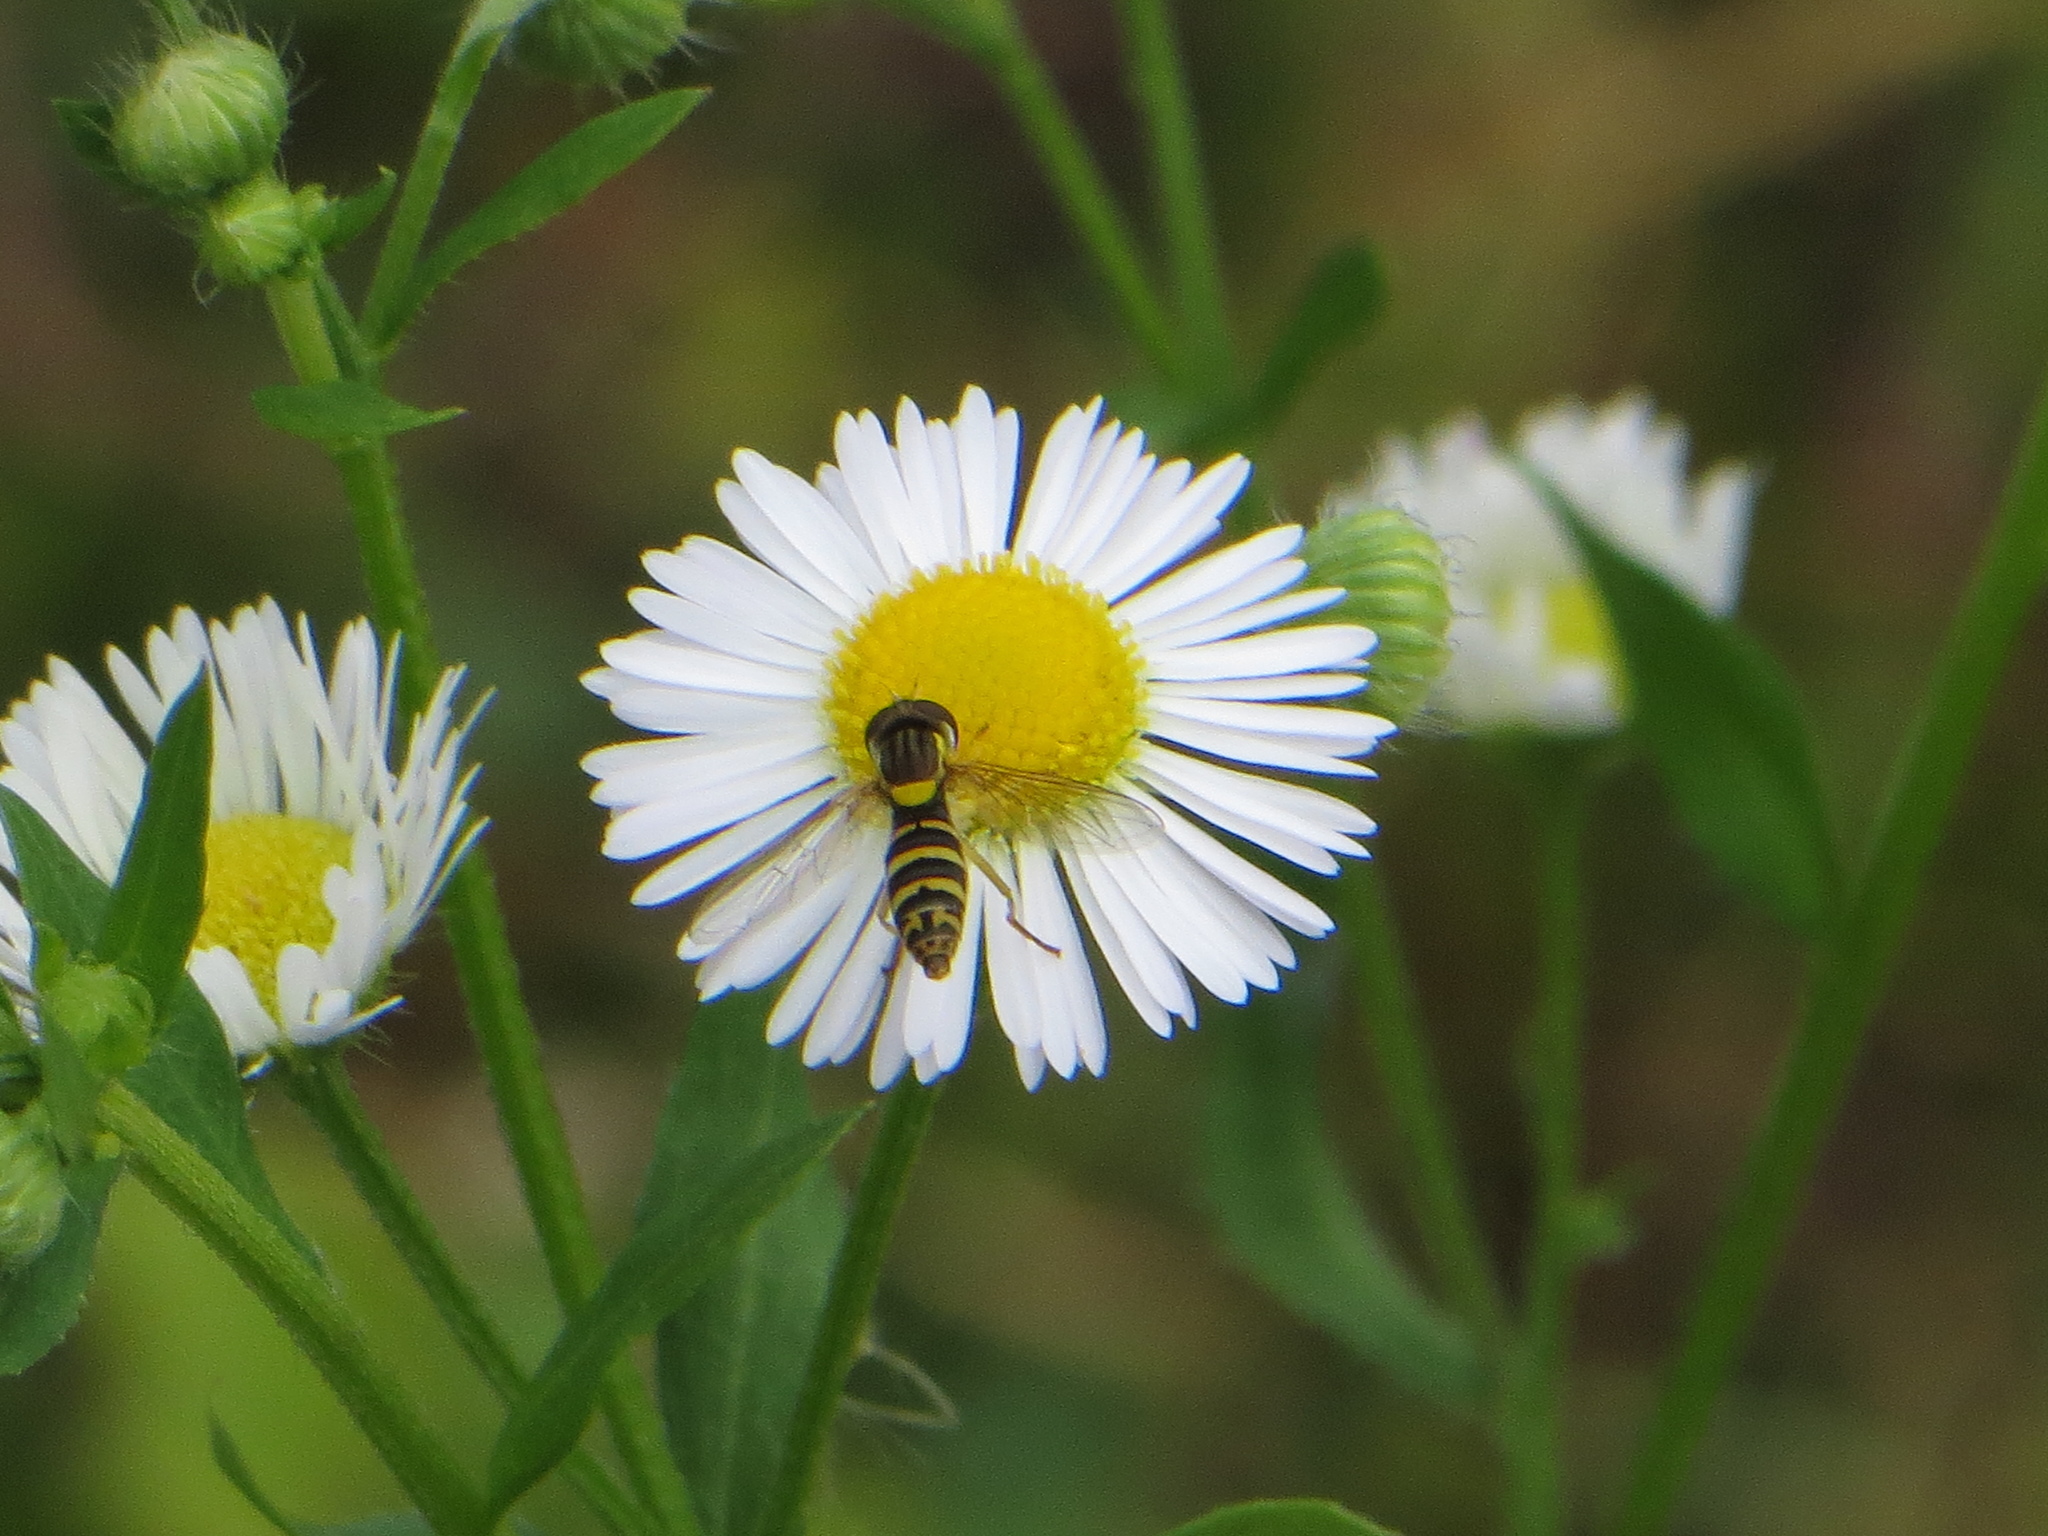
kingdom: Animalia
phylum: Arthropoda
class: Insecta
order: Diptera
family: Syrphidae
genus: Sphaerophoria
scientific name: Sphaerophoria
